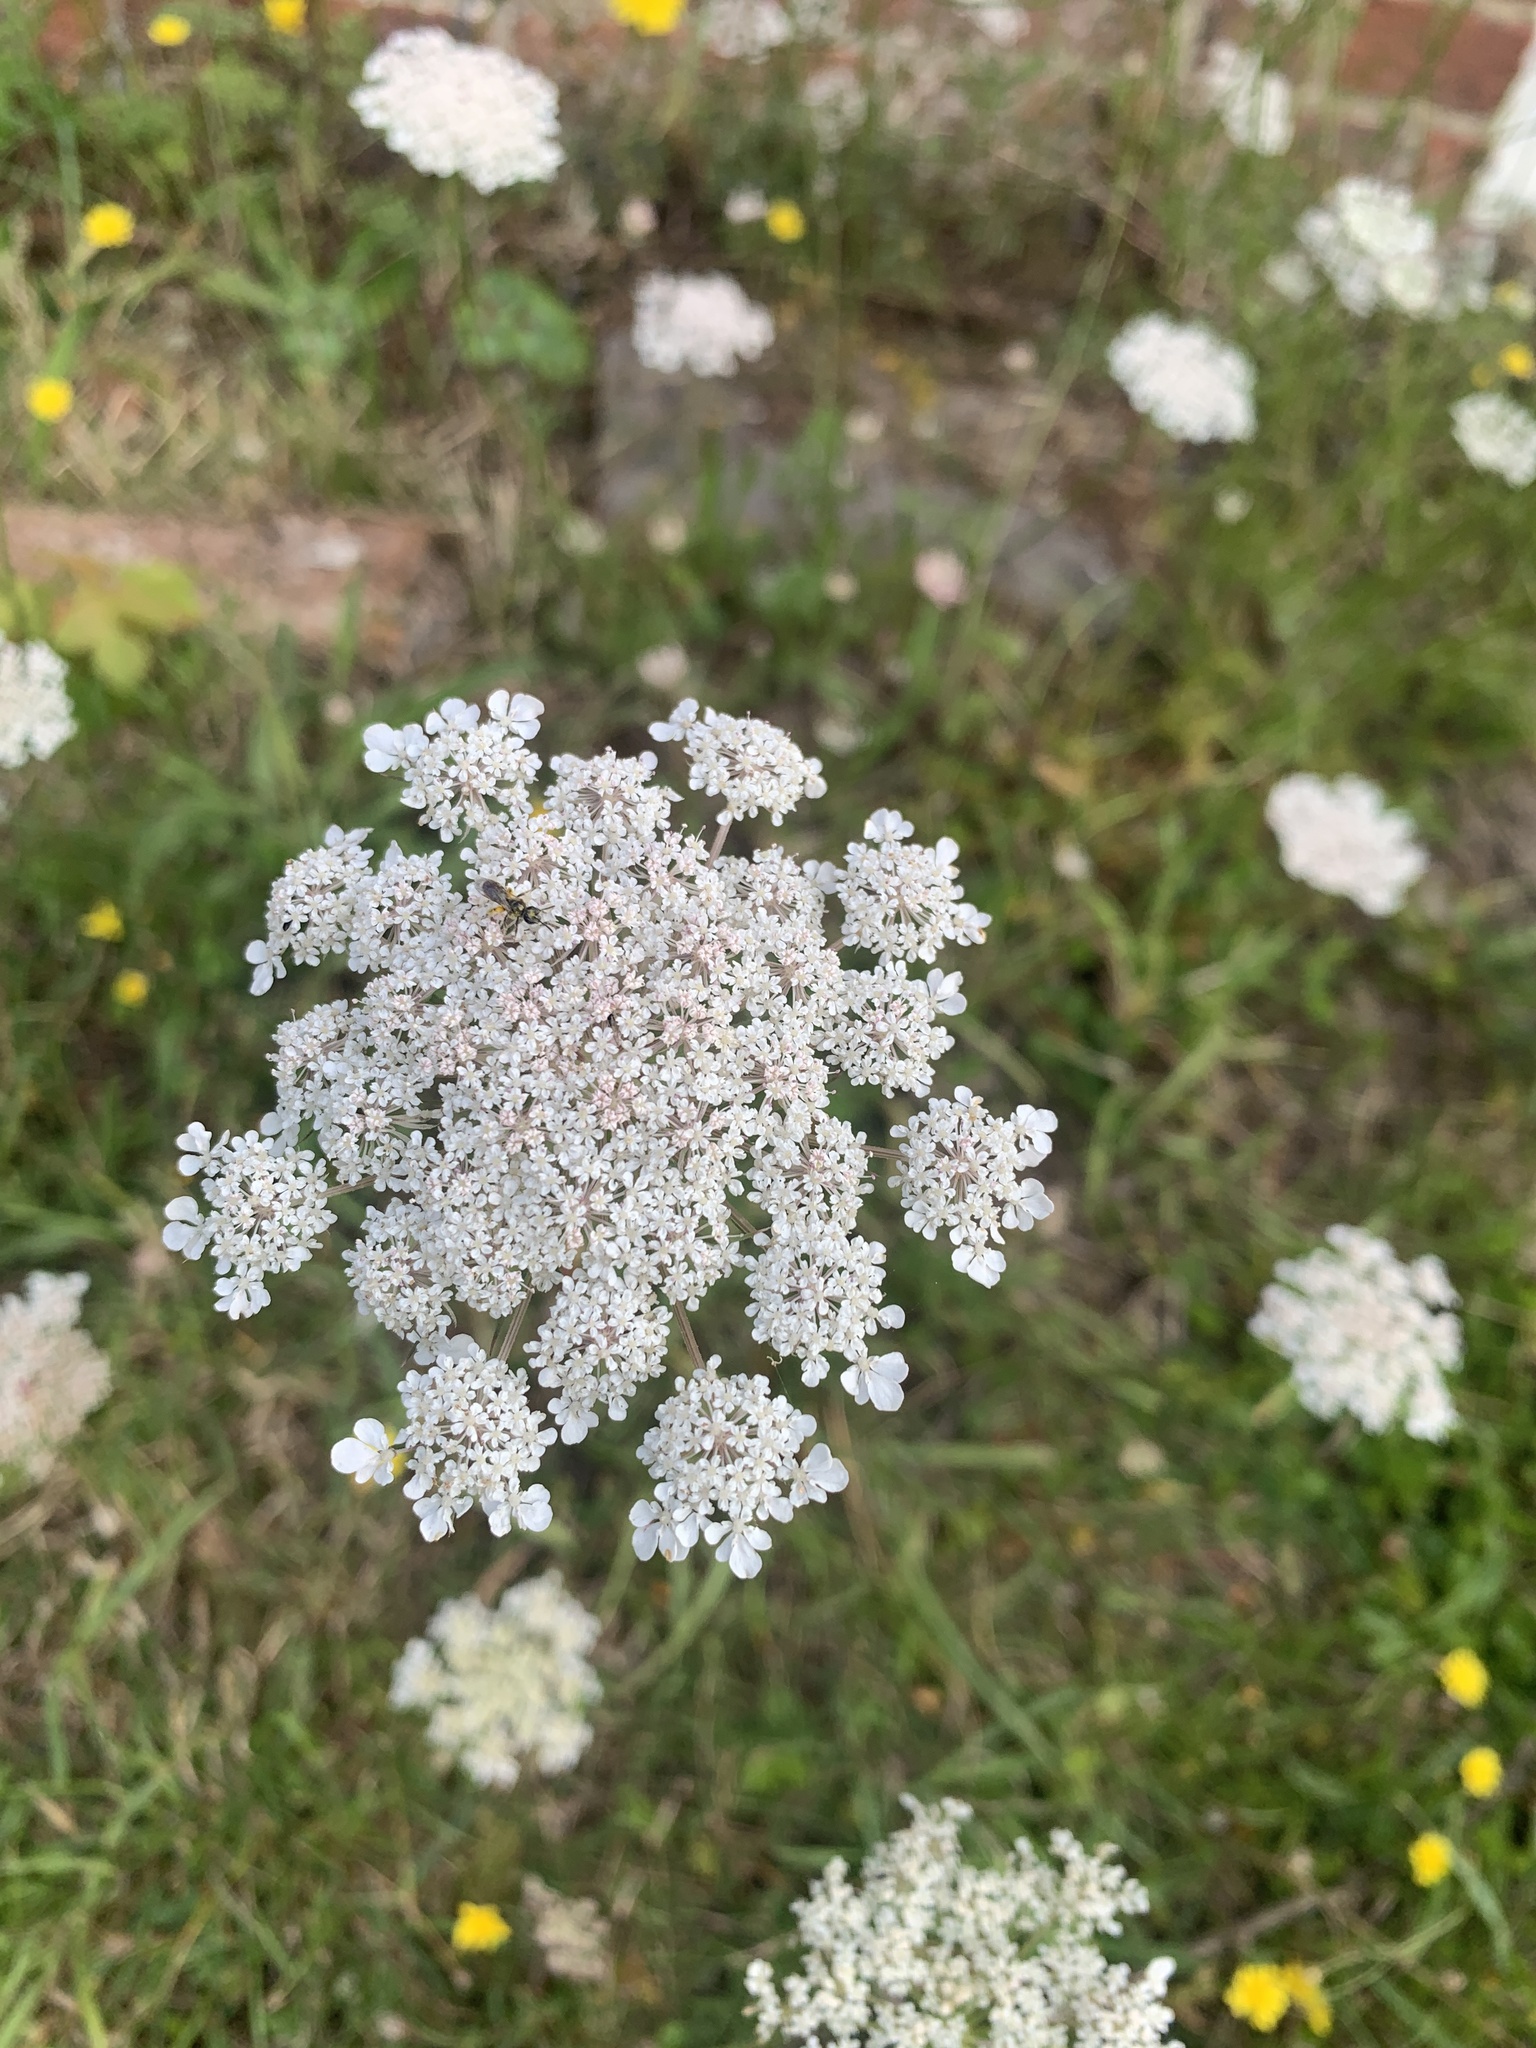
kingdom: Plantae
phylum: Tracheophyta
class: Magnoliopsida
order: Apiales
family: Apiaceae
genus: Daucus
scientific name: Daucus carota
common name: Wild carrot
